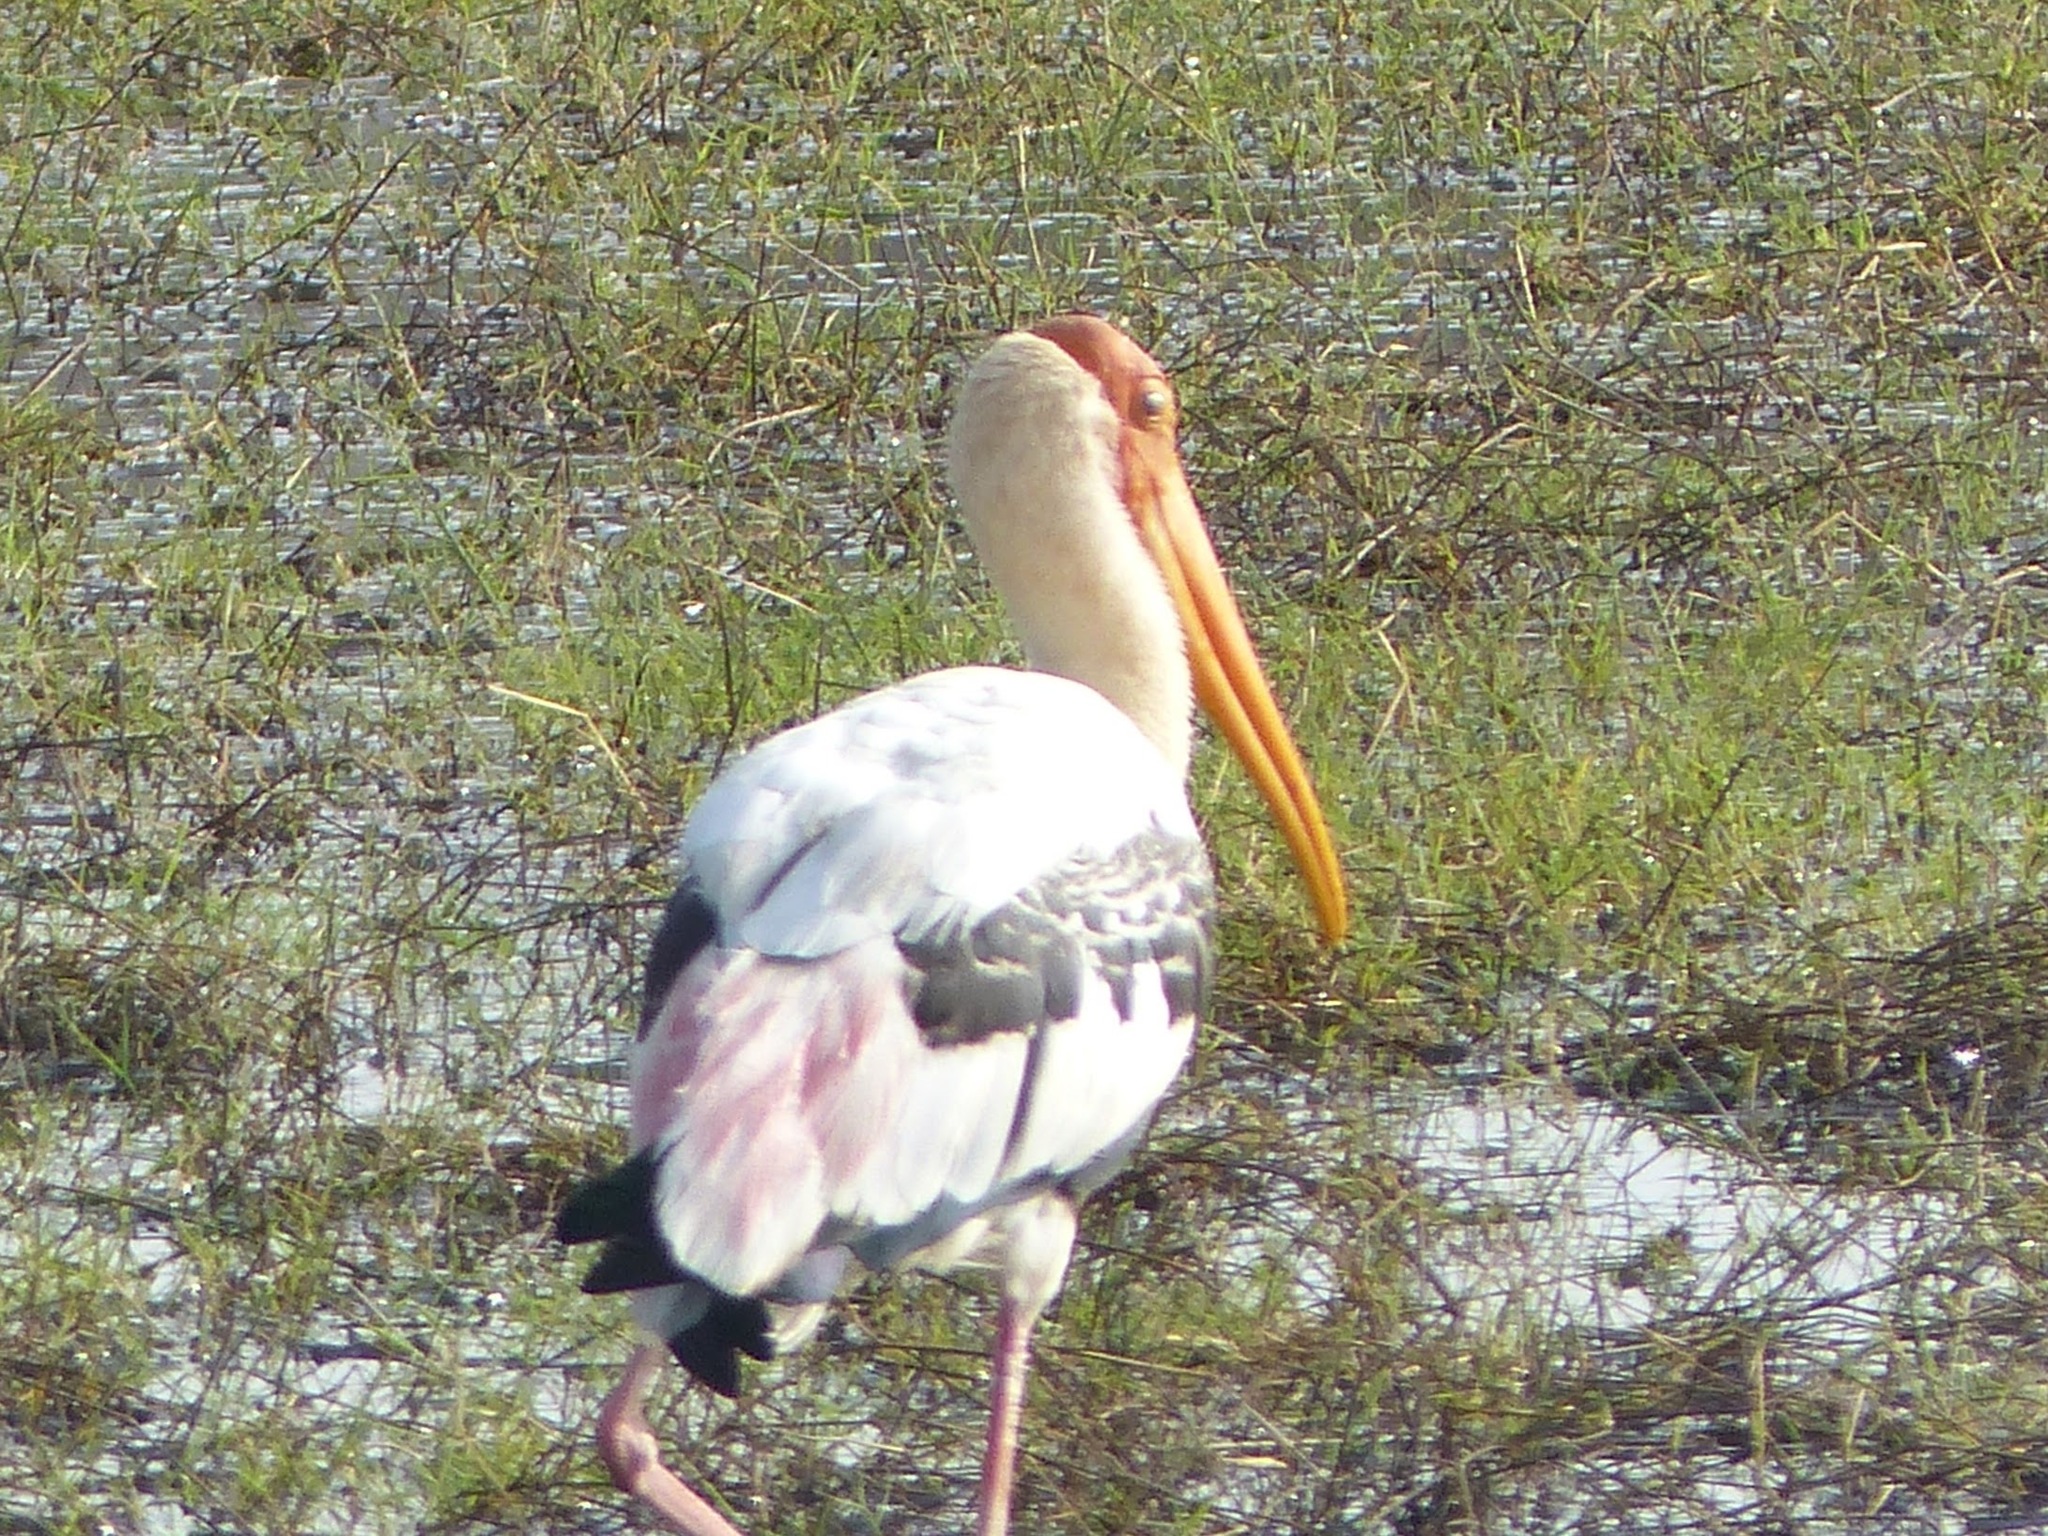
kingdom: Animalia
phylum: Chordata
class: Aves
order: Ciconiiformes
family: Ciconiidae
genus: Mycteria
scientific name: Mycteria leucocephala
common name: Painted stork
